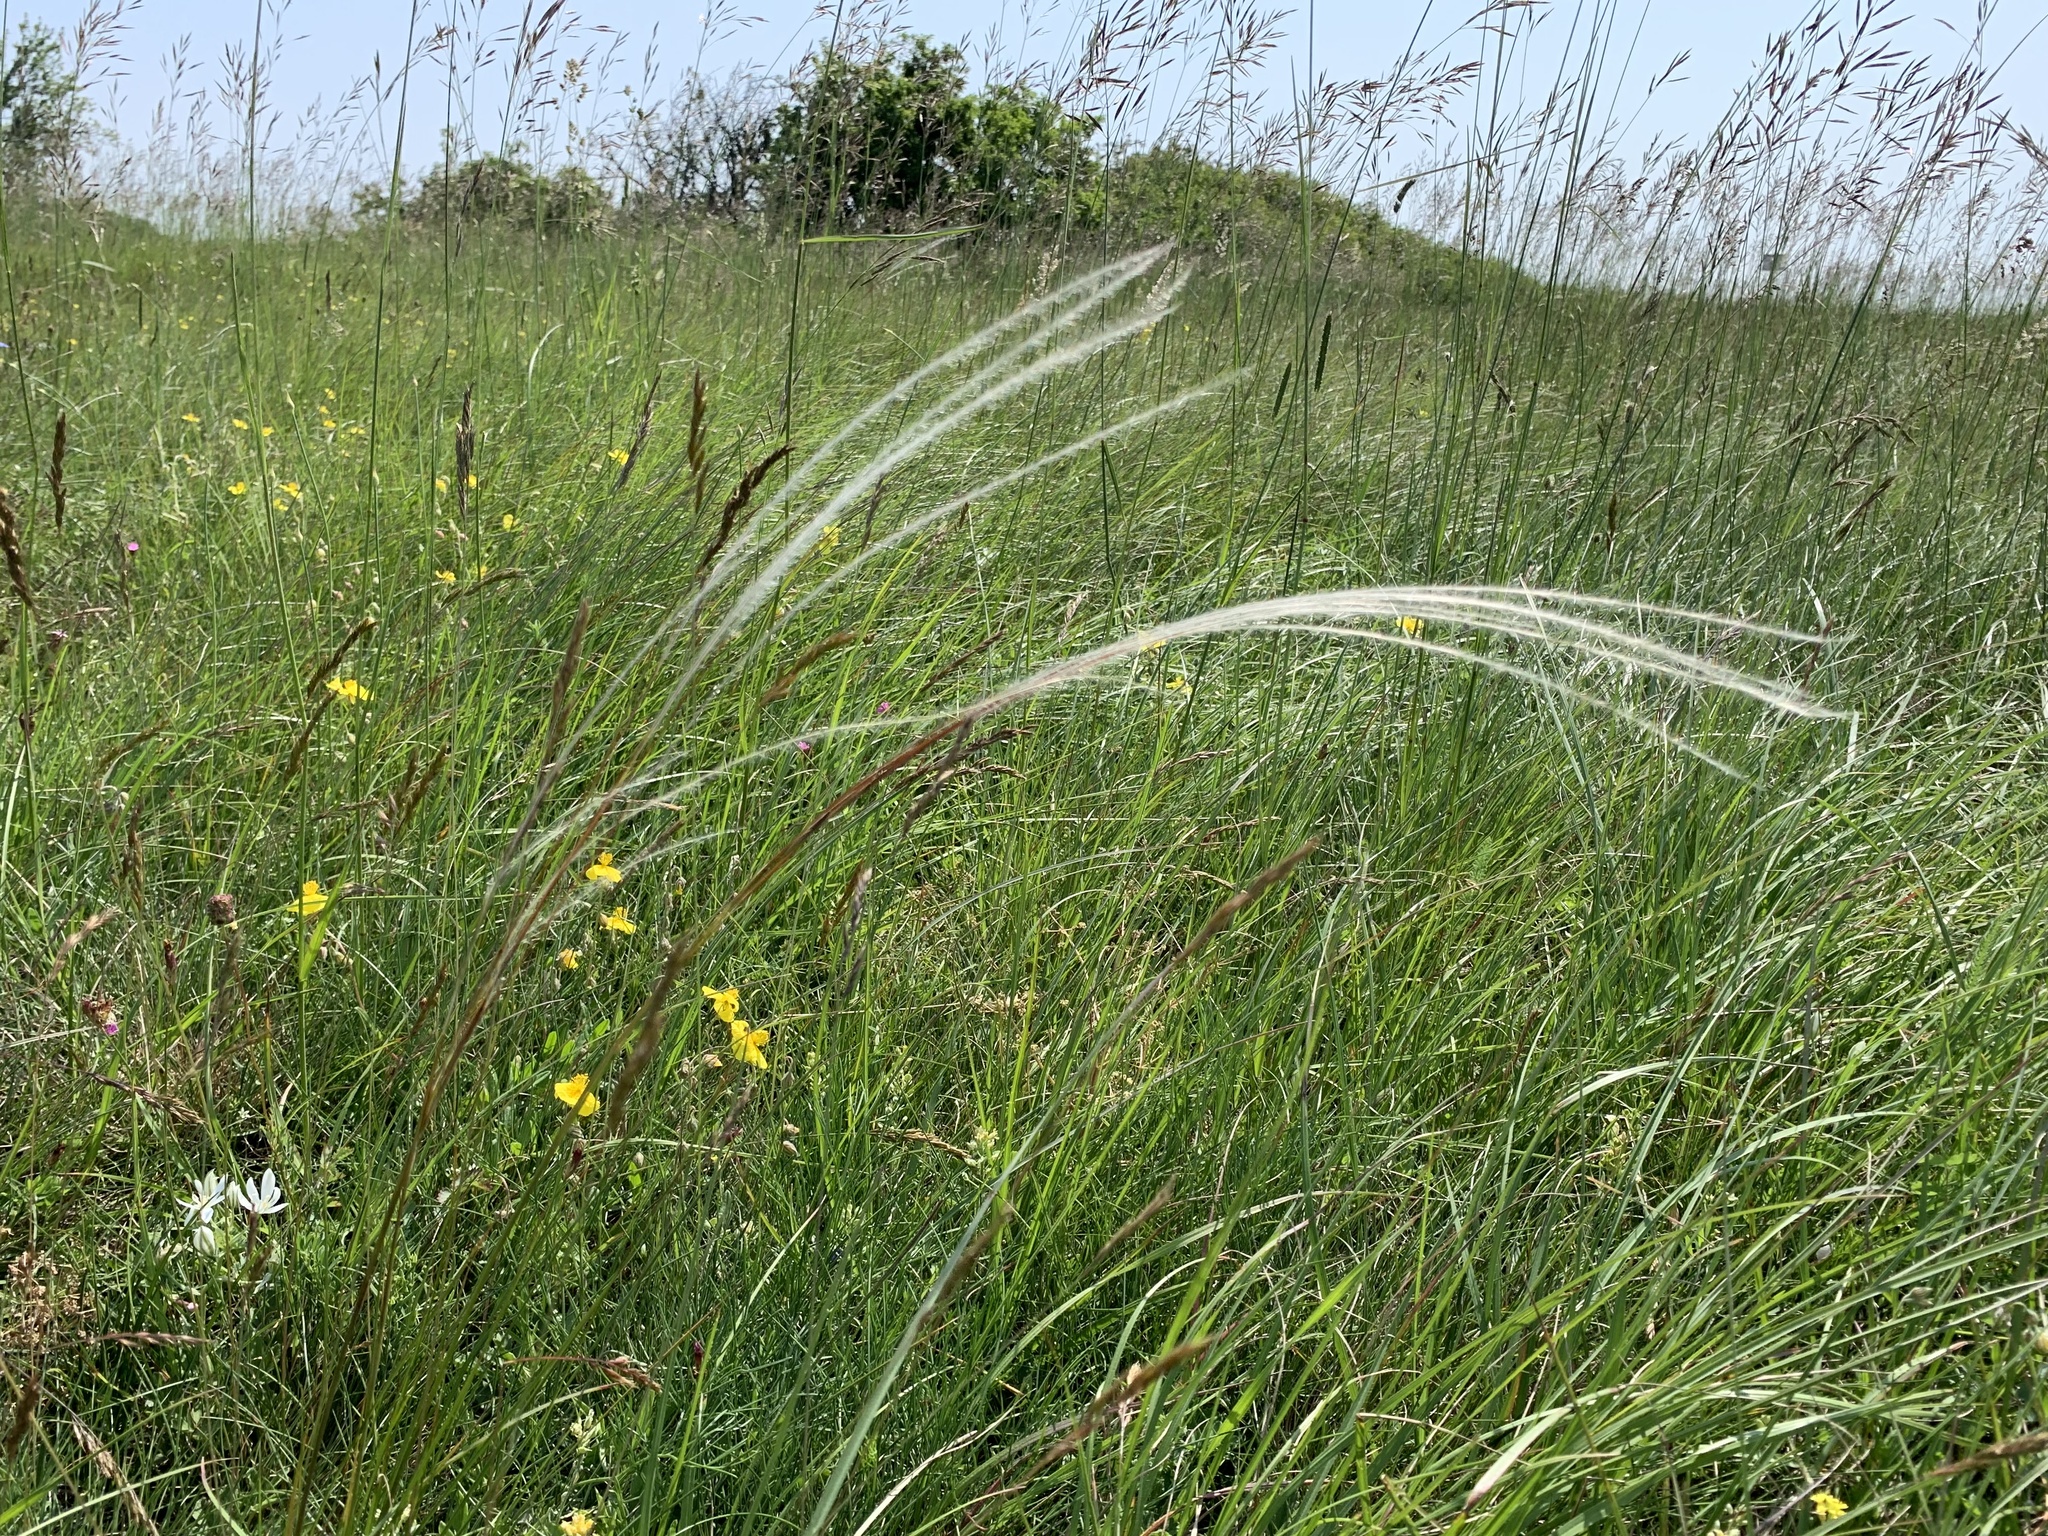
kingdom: Plantae
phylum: Tracheophyta
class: Liliopsida
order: Poales
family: Poaceae
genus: Stipa
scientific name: Stipa pennata
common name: European feather grass
